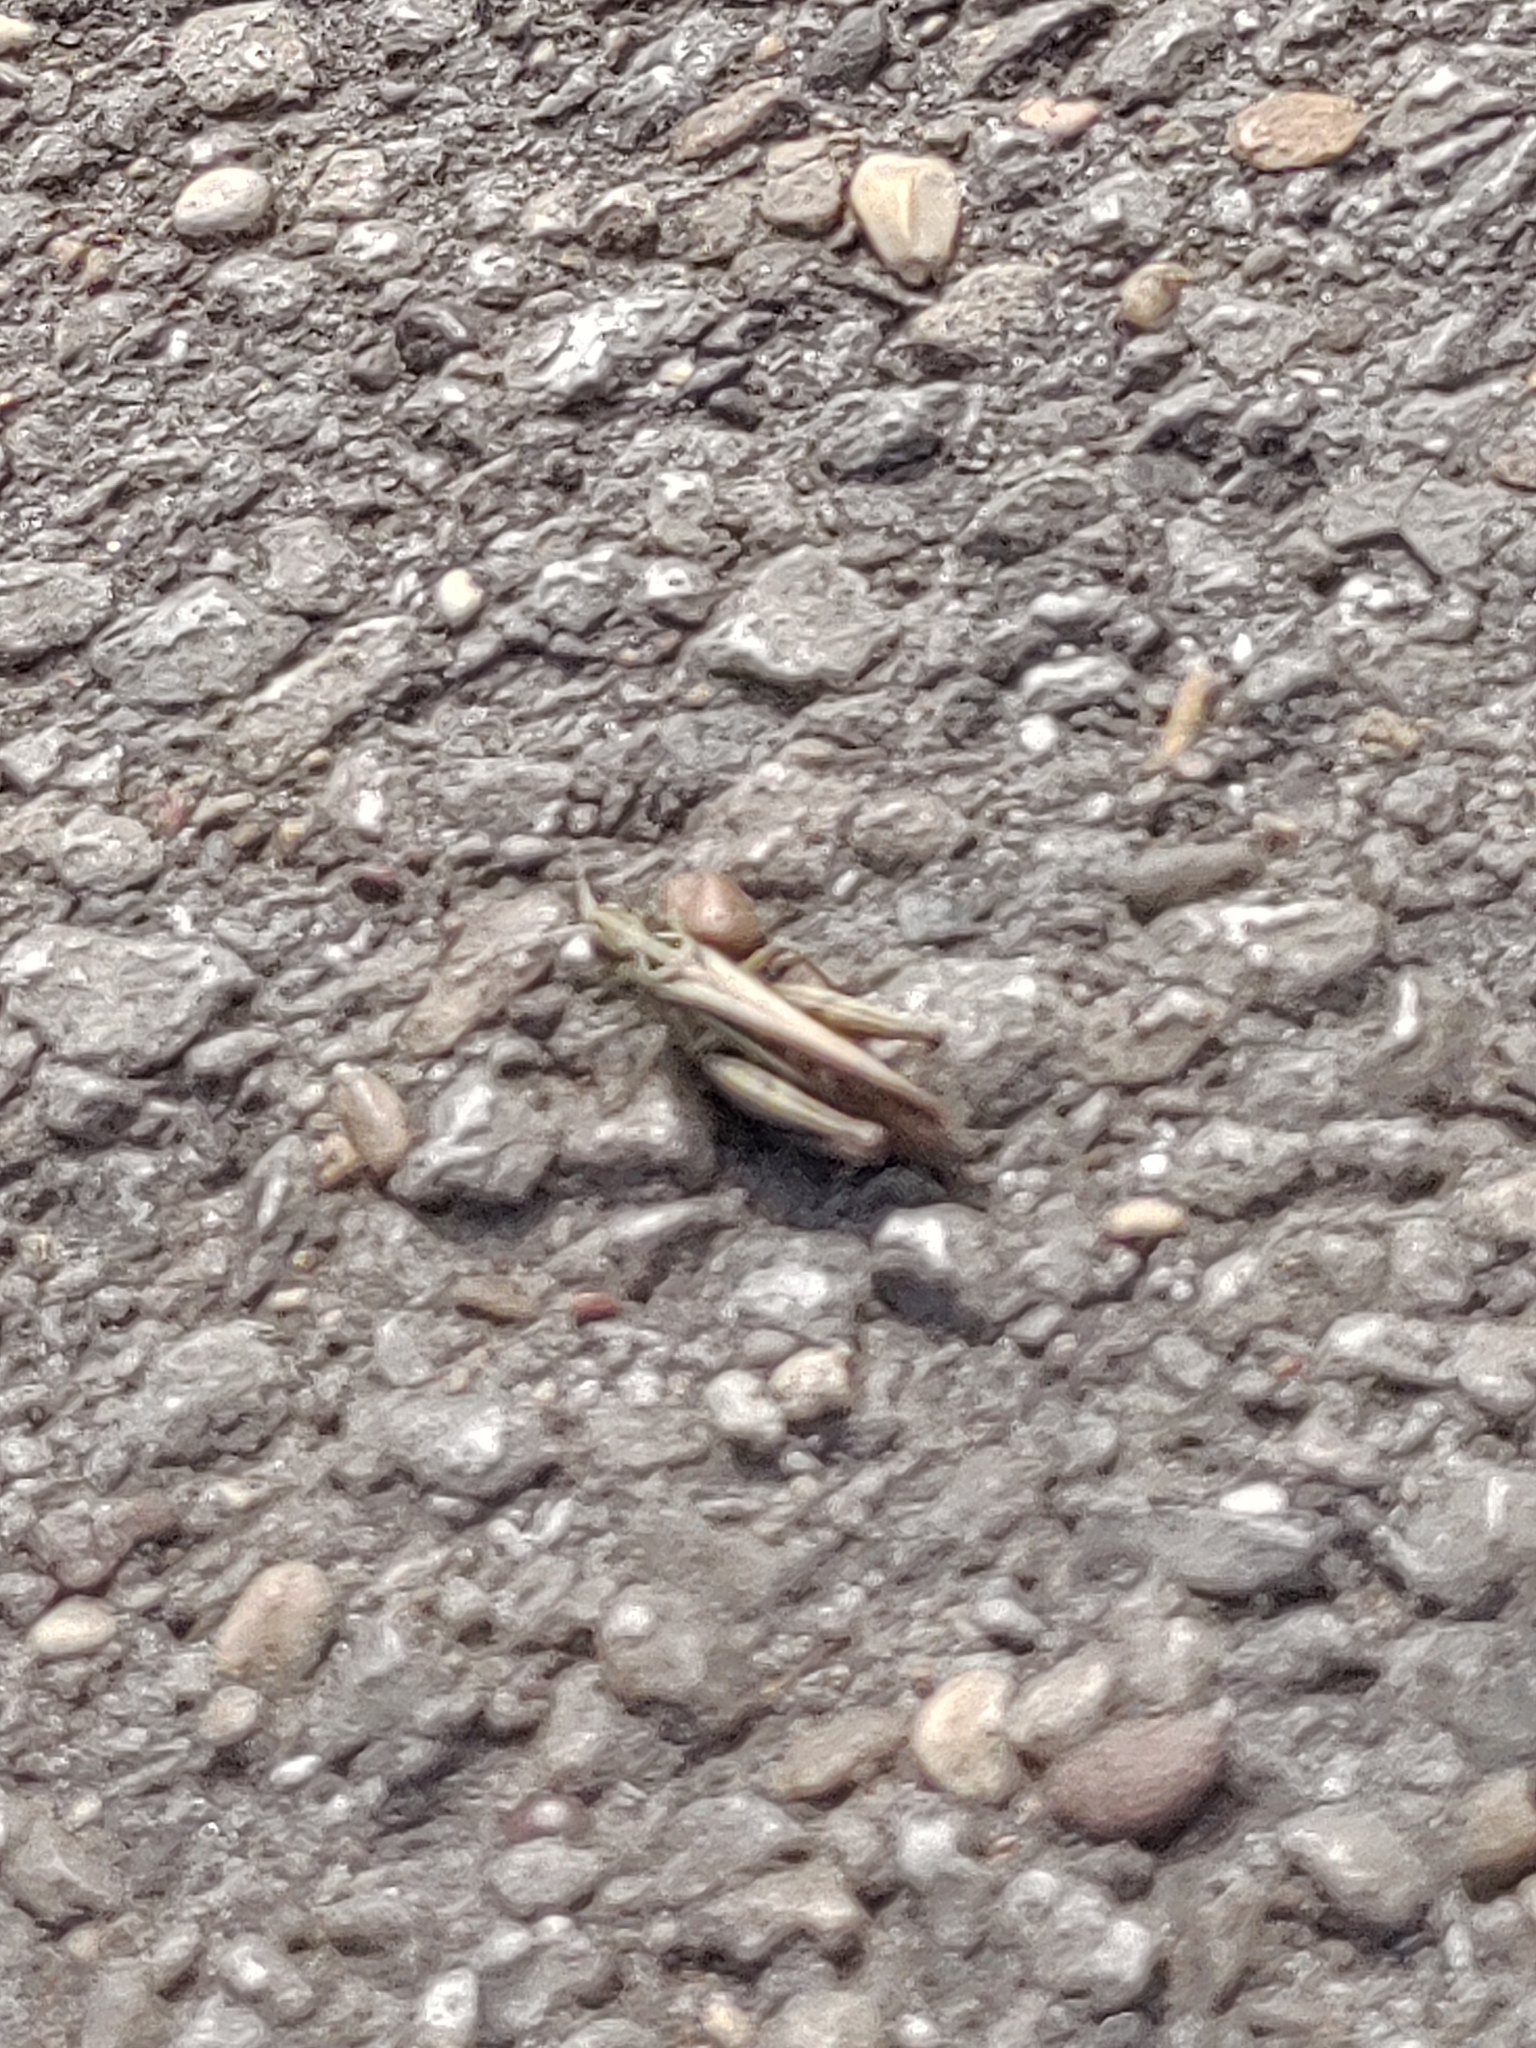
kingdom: Animalia
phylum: Arthropoda
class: Insecta
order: Orthoptera
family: Acrididae
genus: Chorthippus
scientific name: Chorthippus brunneus
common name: Field grasshopper
